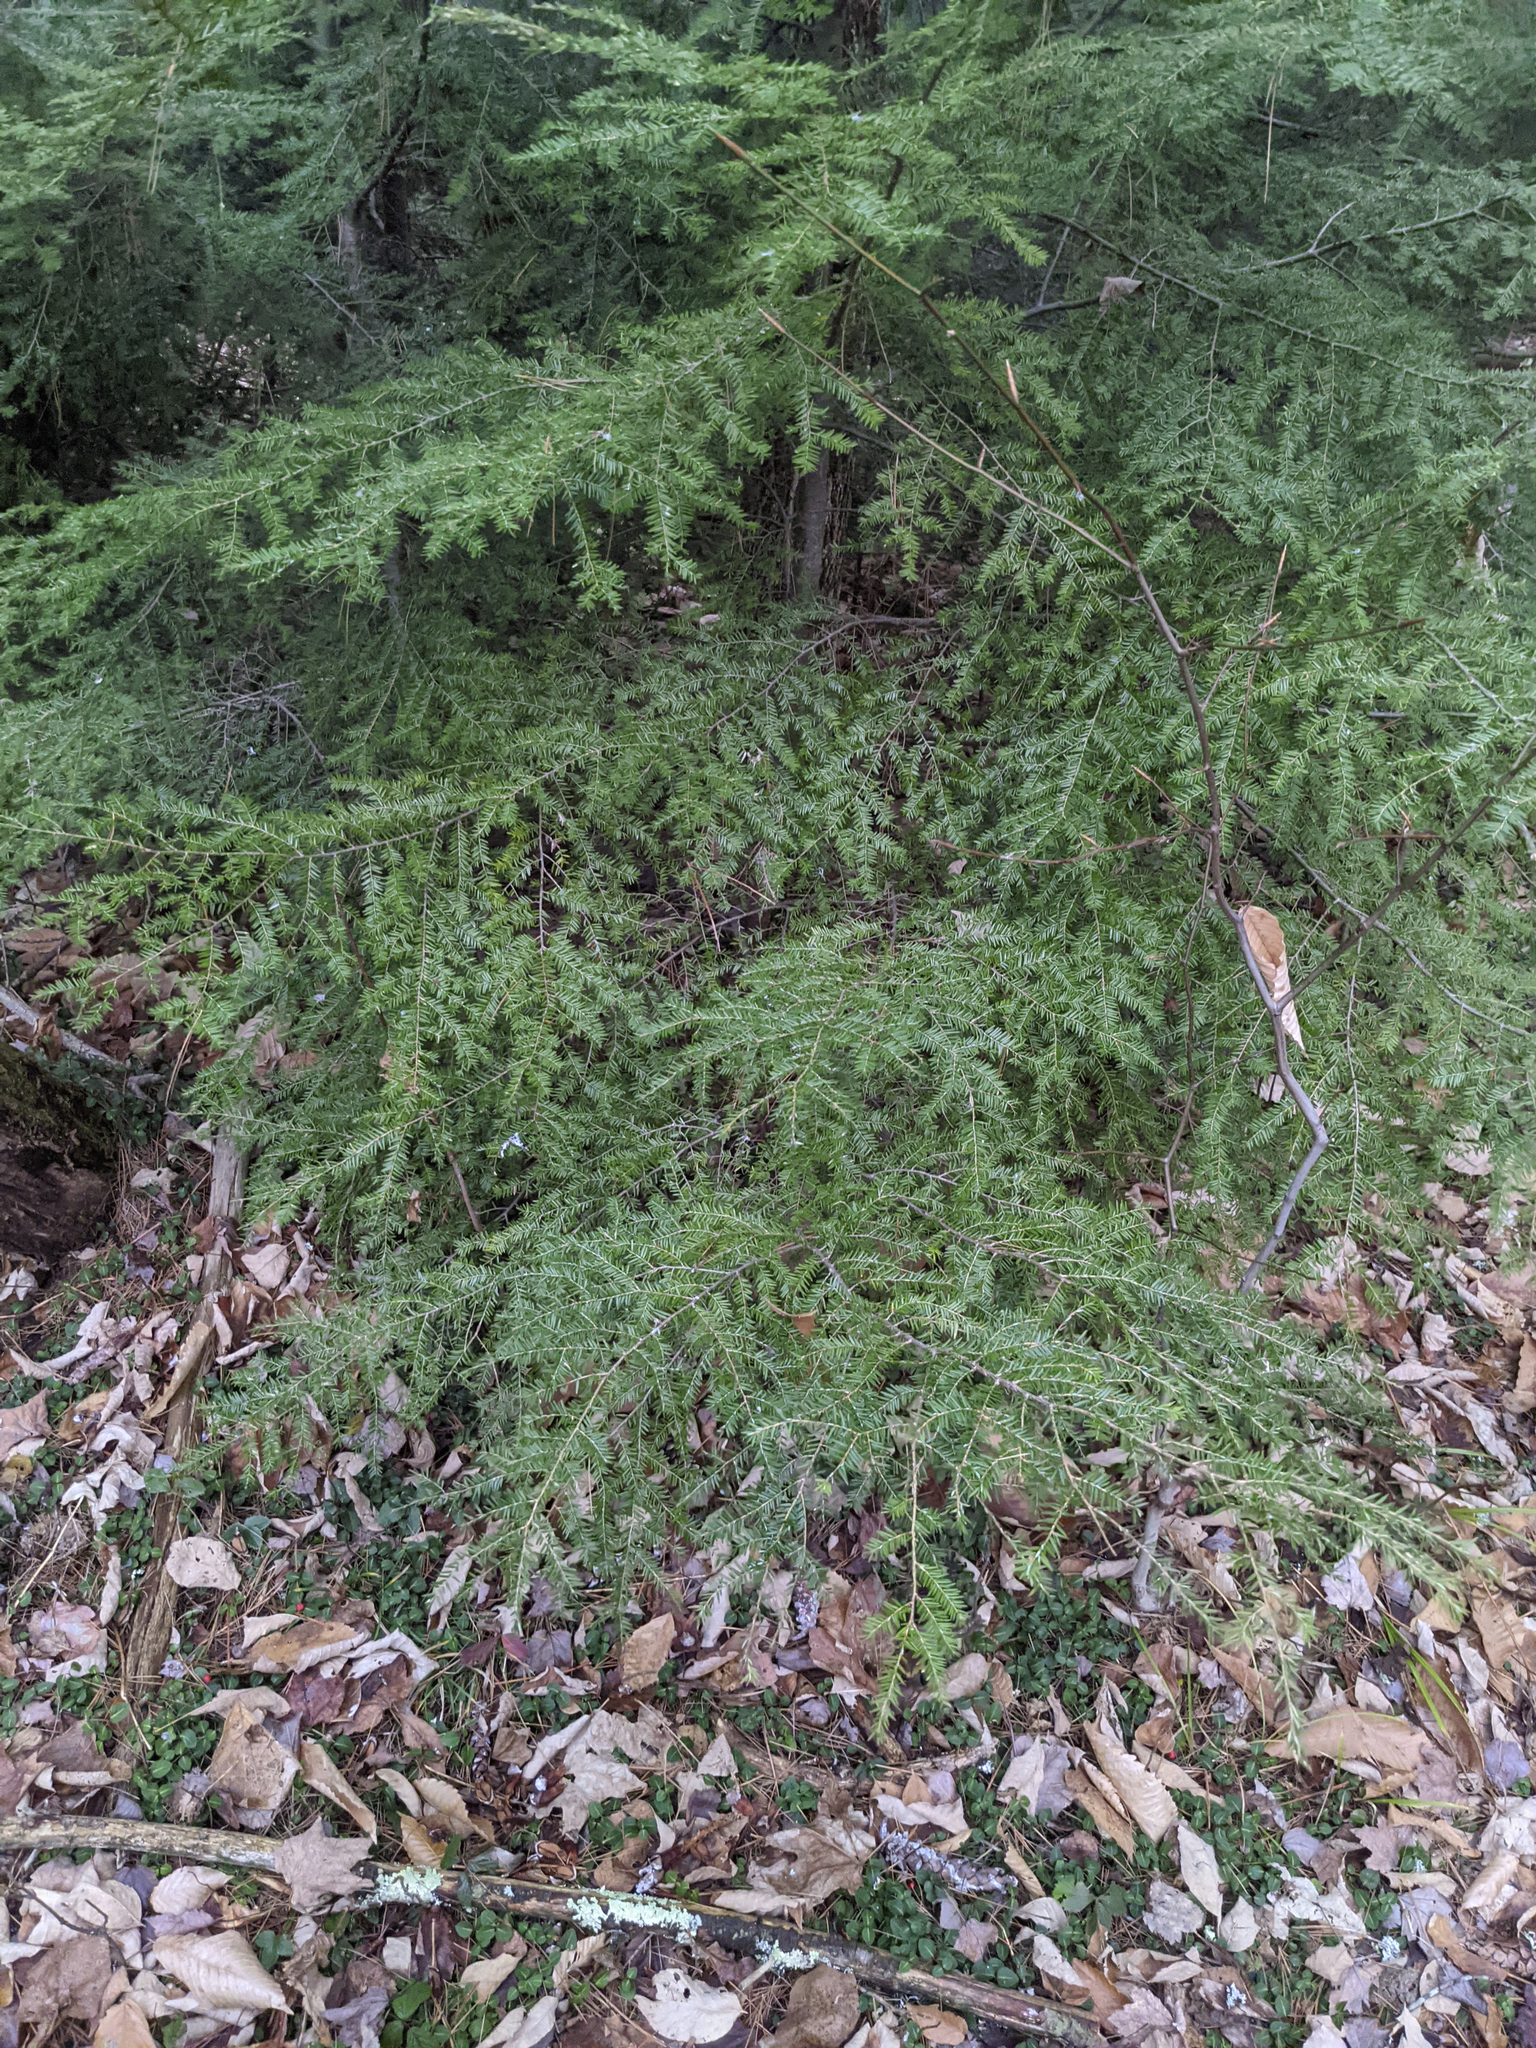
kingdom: Plantae
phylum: Tracheophyta
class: Pinopsida
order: Pinales
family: Pinaceae
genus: Tsuga
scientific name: Tsuga canadensis
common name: Eastern hemlock
